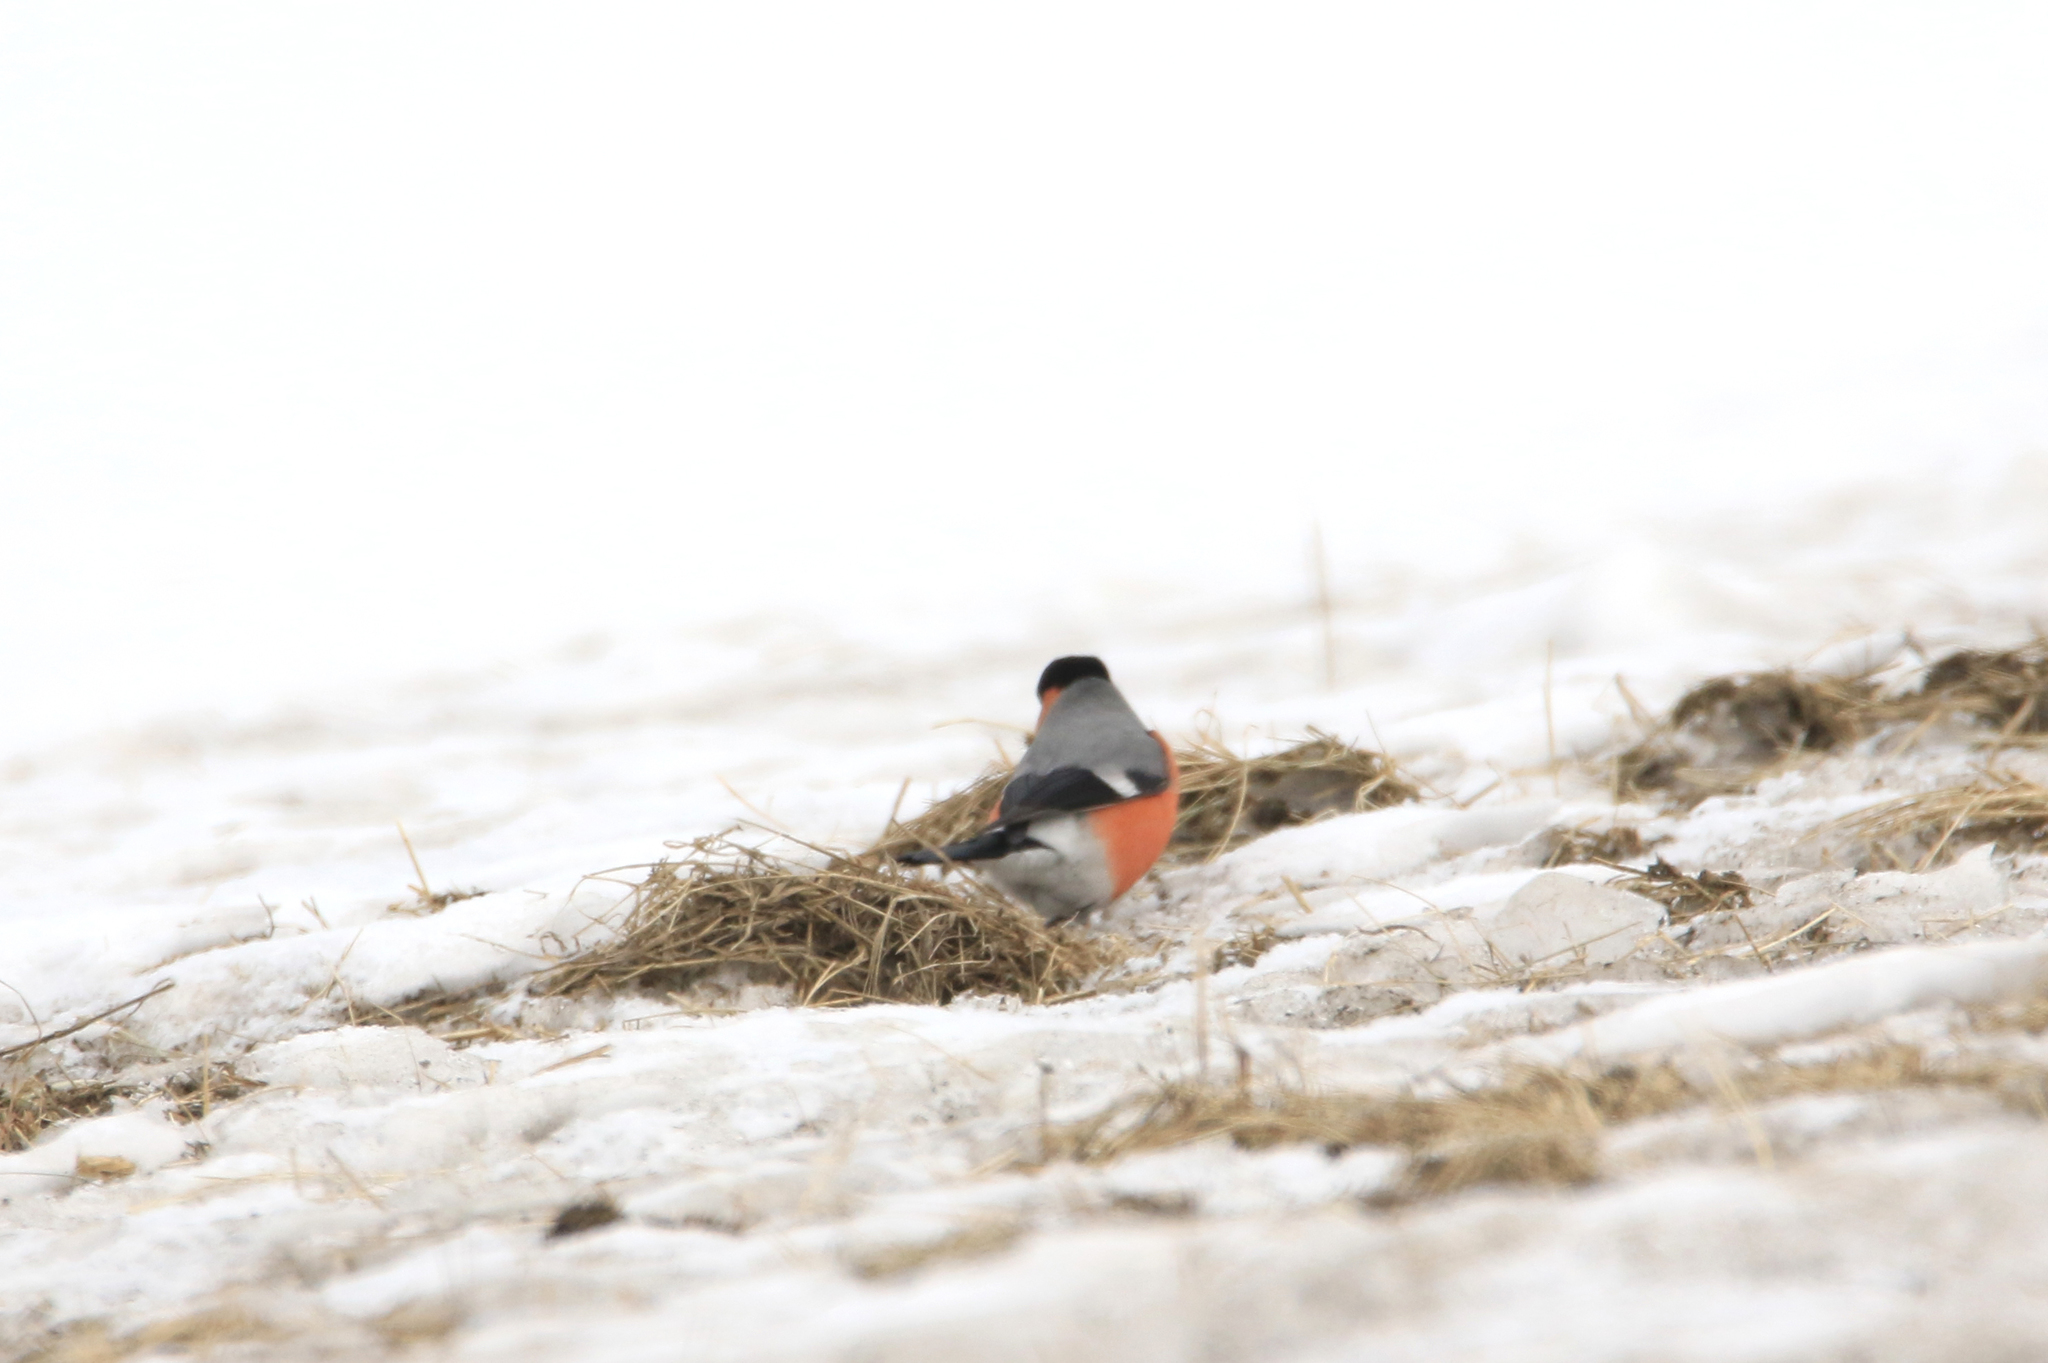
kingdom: Animalia
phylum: Chordata
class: Aves
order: Passeriformes
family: Fringillidae
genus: Pyrrhula
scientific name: Pyrrhula pyrrhula
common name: Eurasian bullfinch
